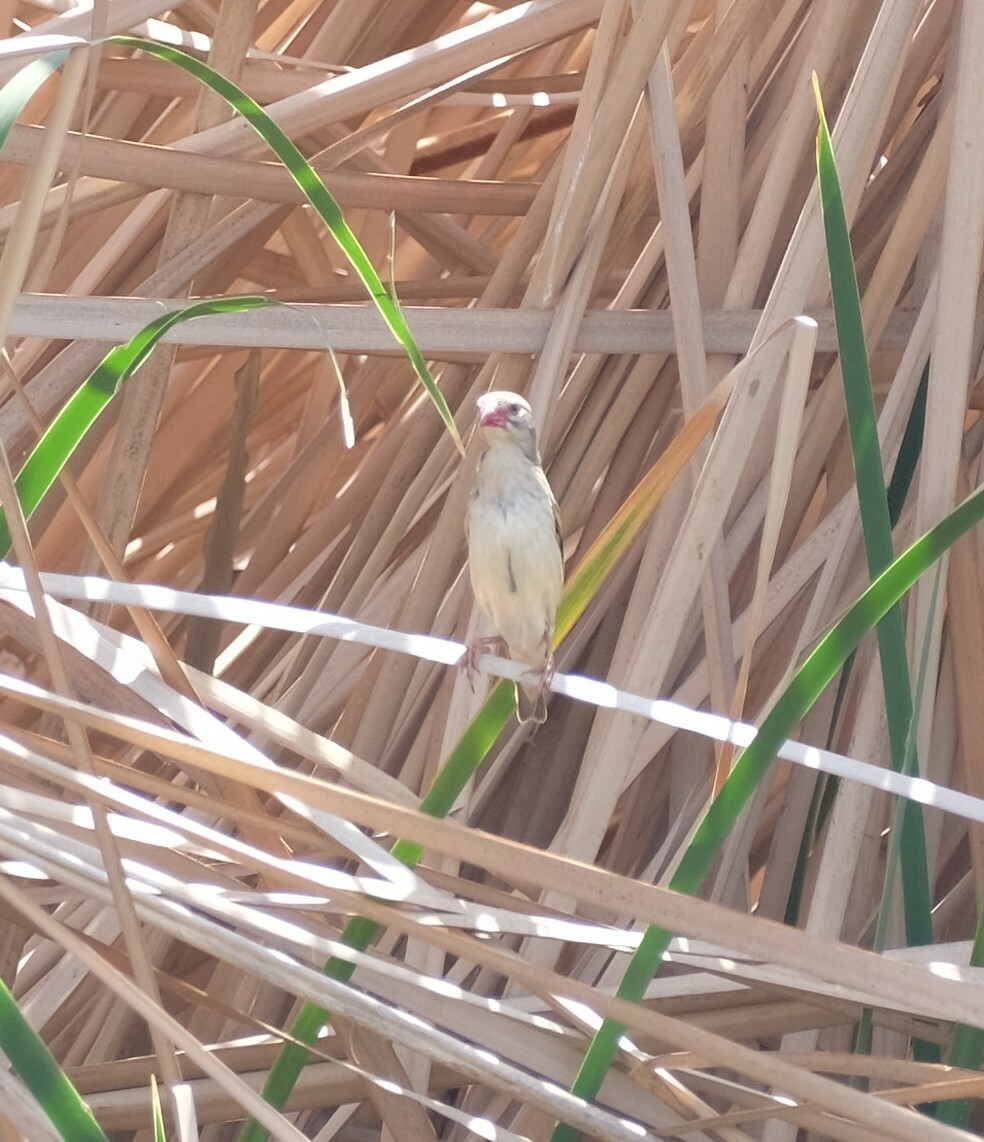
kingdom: Animalia
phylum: Chordata
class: Aves
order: Passeriformes
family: Ploceidae
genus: Quelea
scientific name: Quelea quelea
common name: Red-billed quelea
